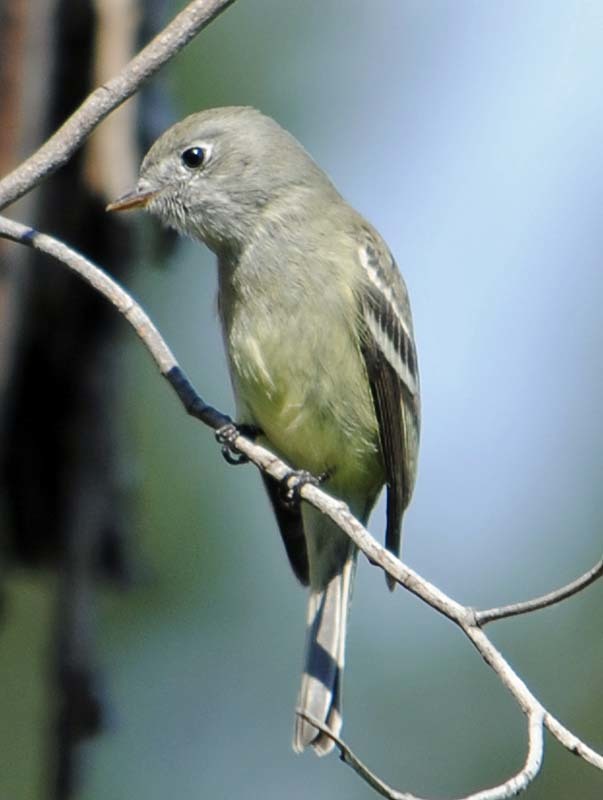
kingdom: Animalia
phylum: Chordata
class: Aves
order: Passeriformes
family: Tyrannidae
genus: Empidonax
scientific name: Empidonax hammondii
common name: Hammond's flycatcher
